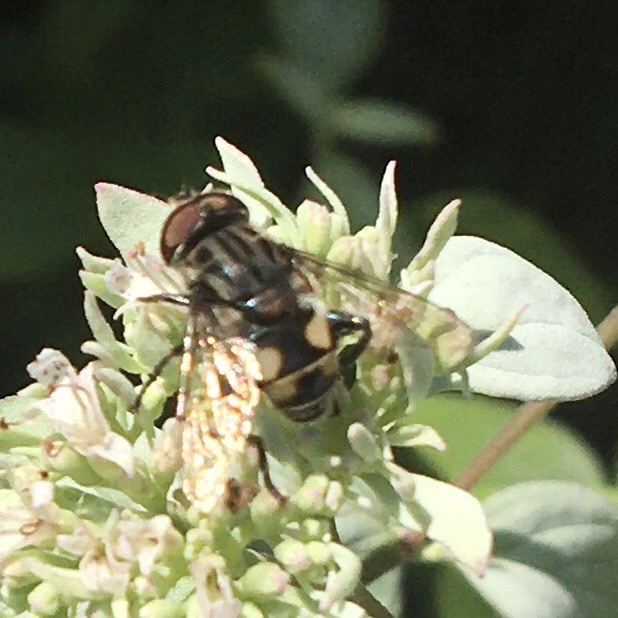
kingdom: Animalia
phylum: Arthropoda
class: Insecta
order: Diptera
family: Syrphidae
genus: Palpada
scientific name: Palpada furcata
